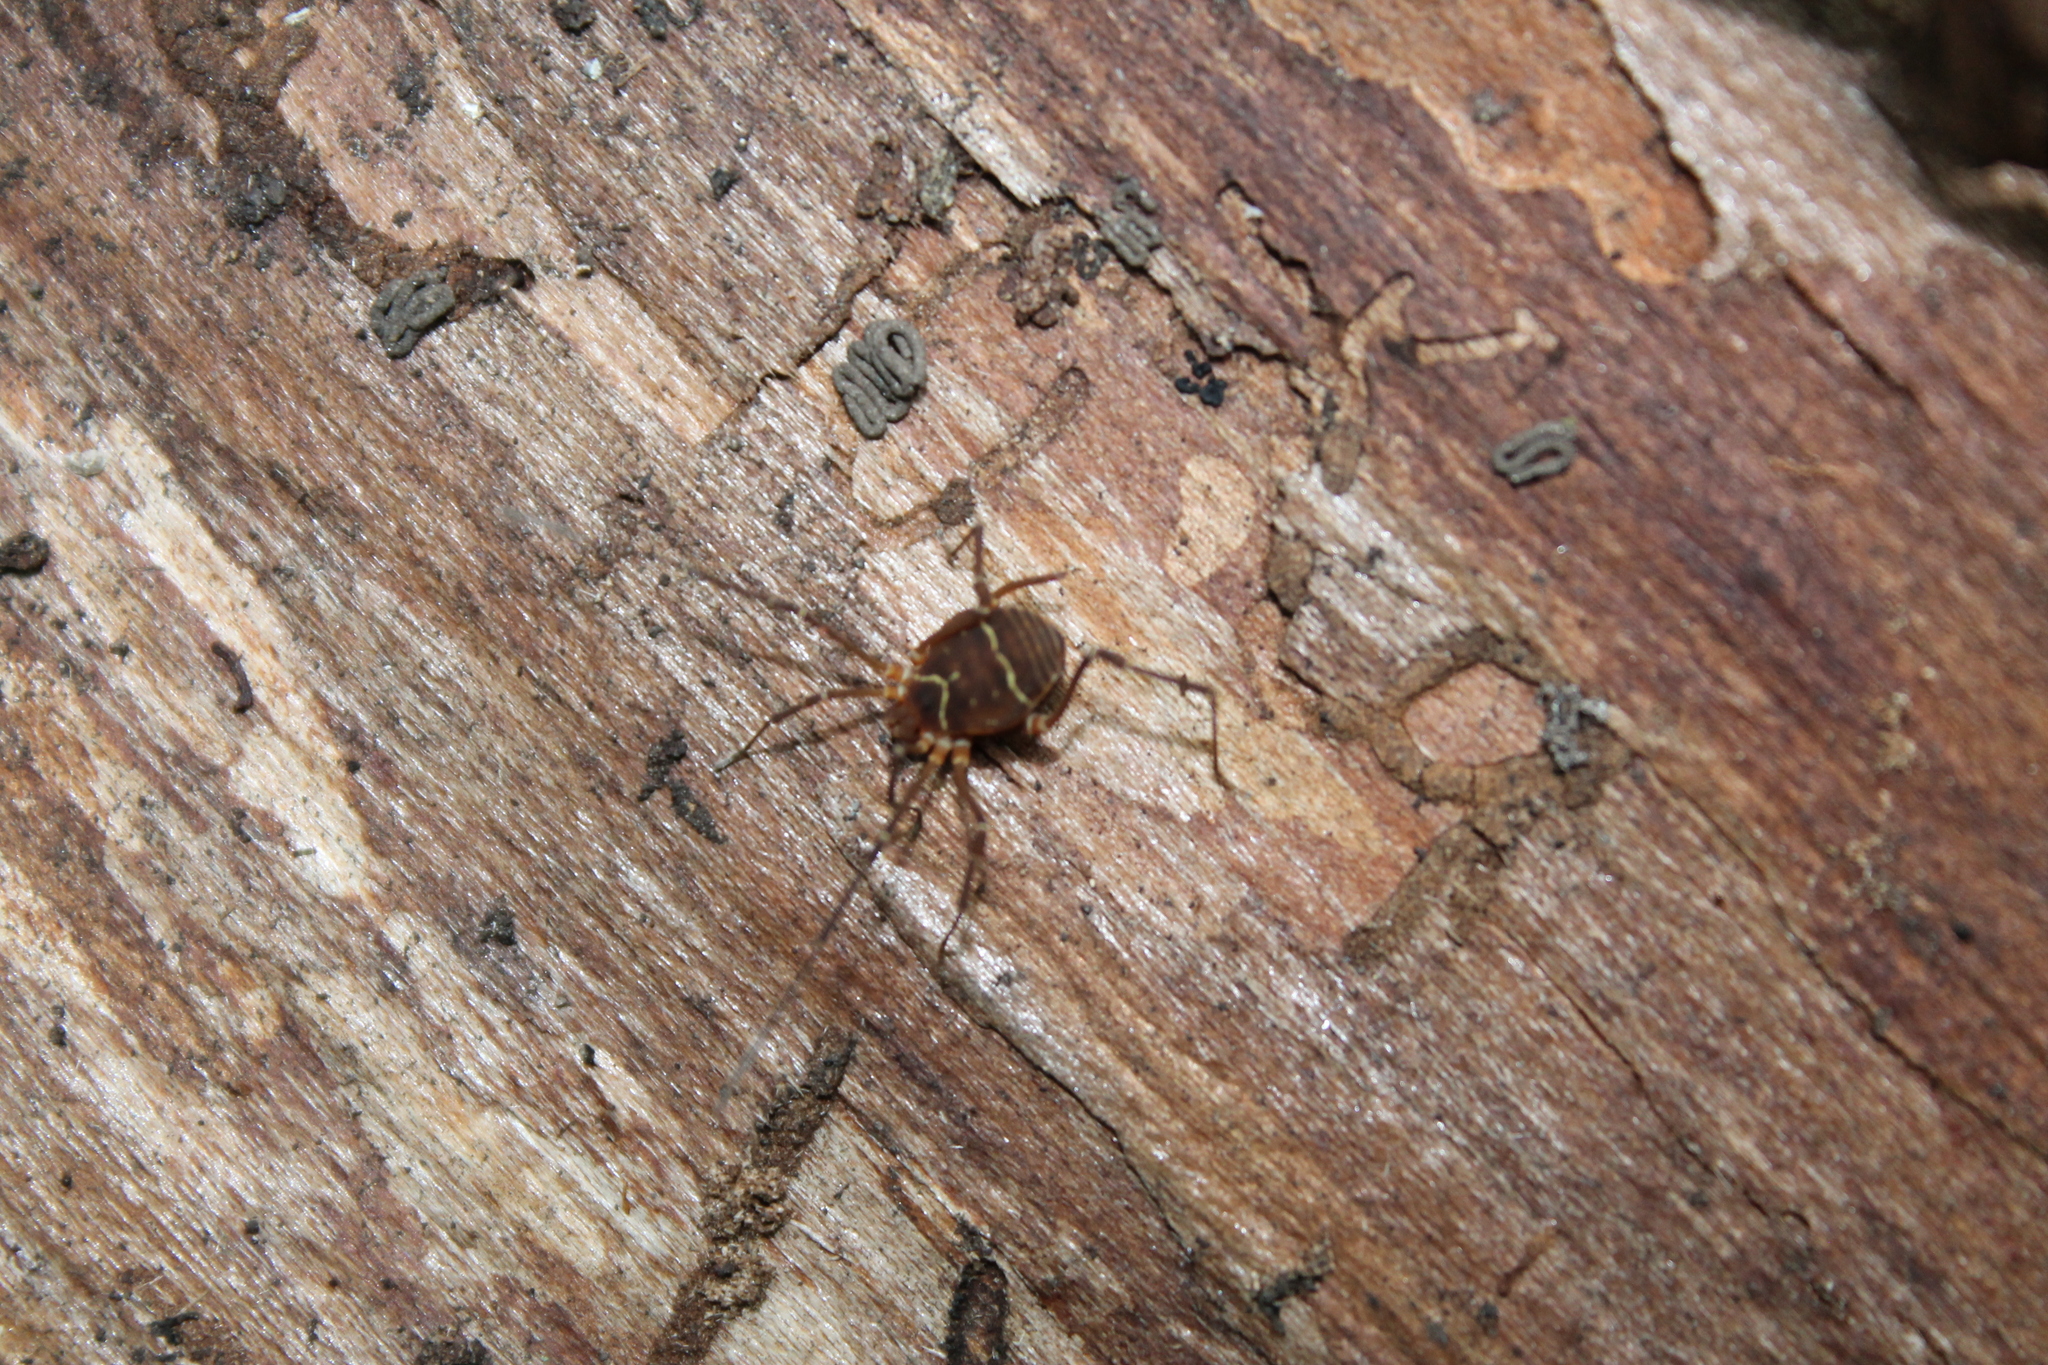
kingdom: Animalia
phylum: Arthropoda
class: Arachnida
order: Opiliones
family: Cosmetidae
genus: Libitioides
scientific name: Libitioides sayi
